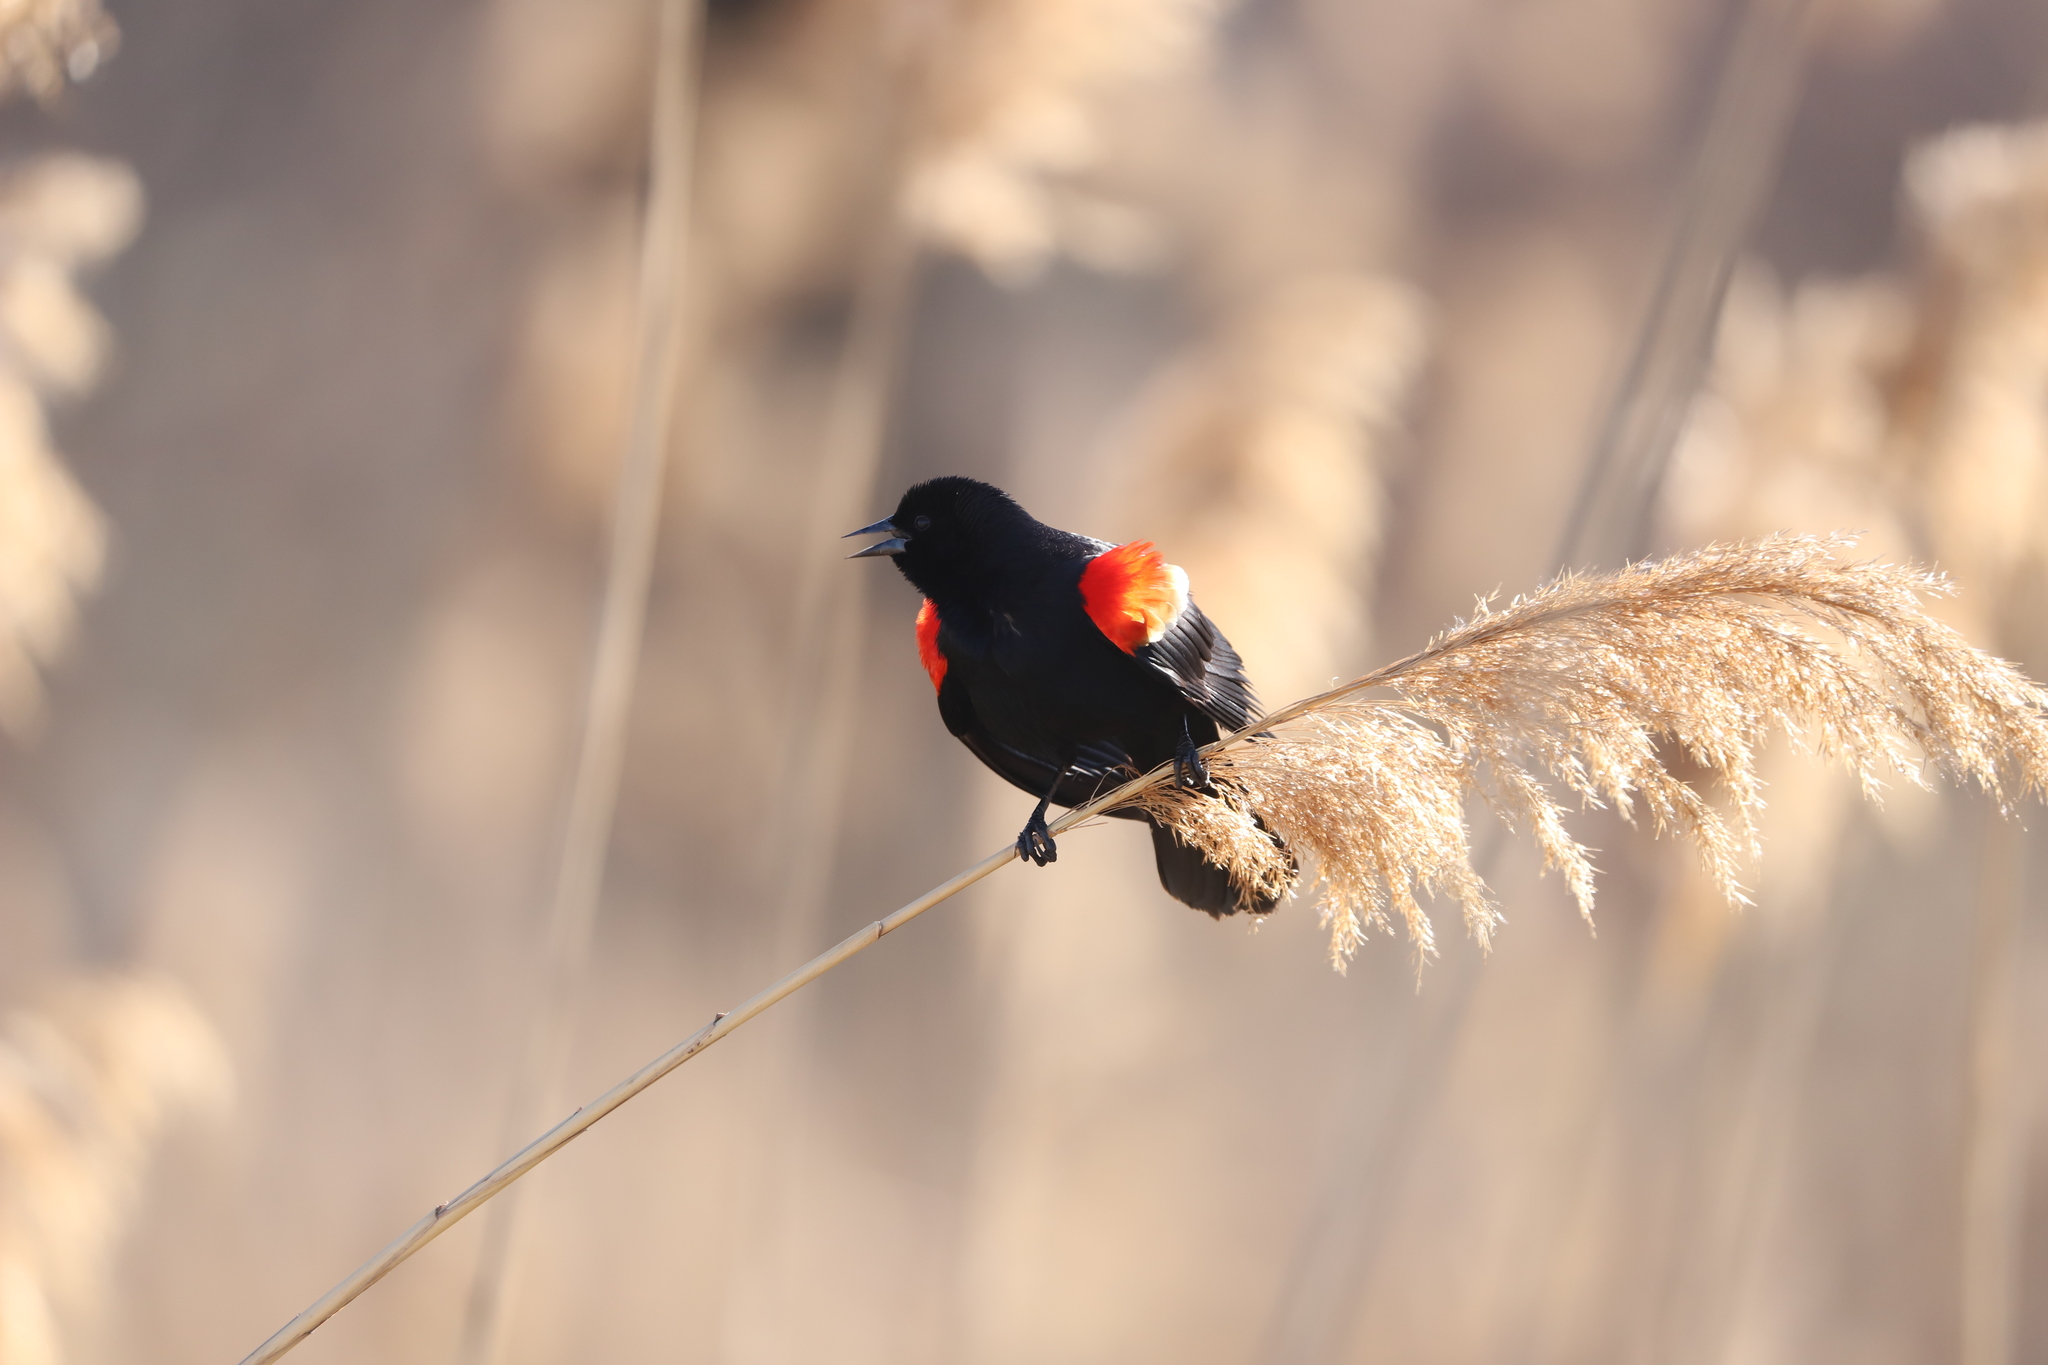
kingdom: Plantae
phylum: Tracheophyta
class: Liliopsida
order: Poales
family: Poaceae
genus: Phragmites
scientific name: Phragmites australis
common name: Common reed
